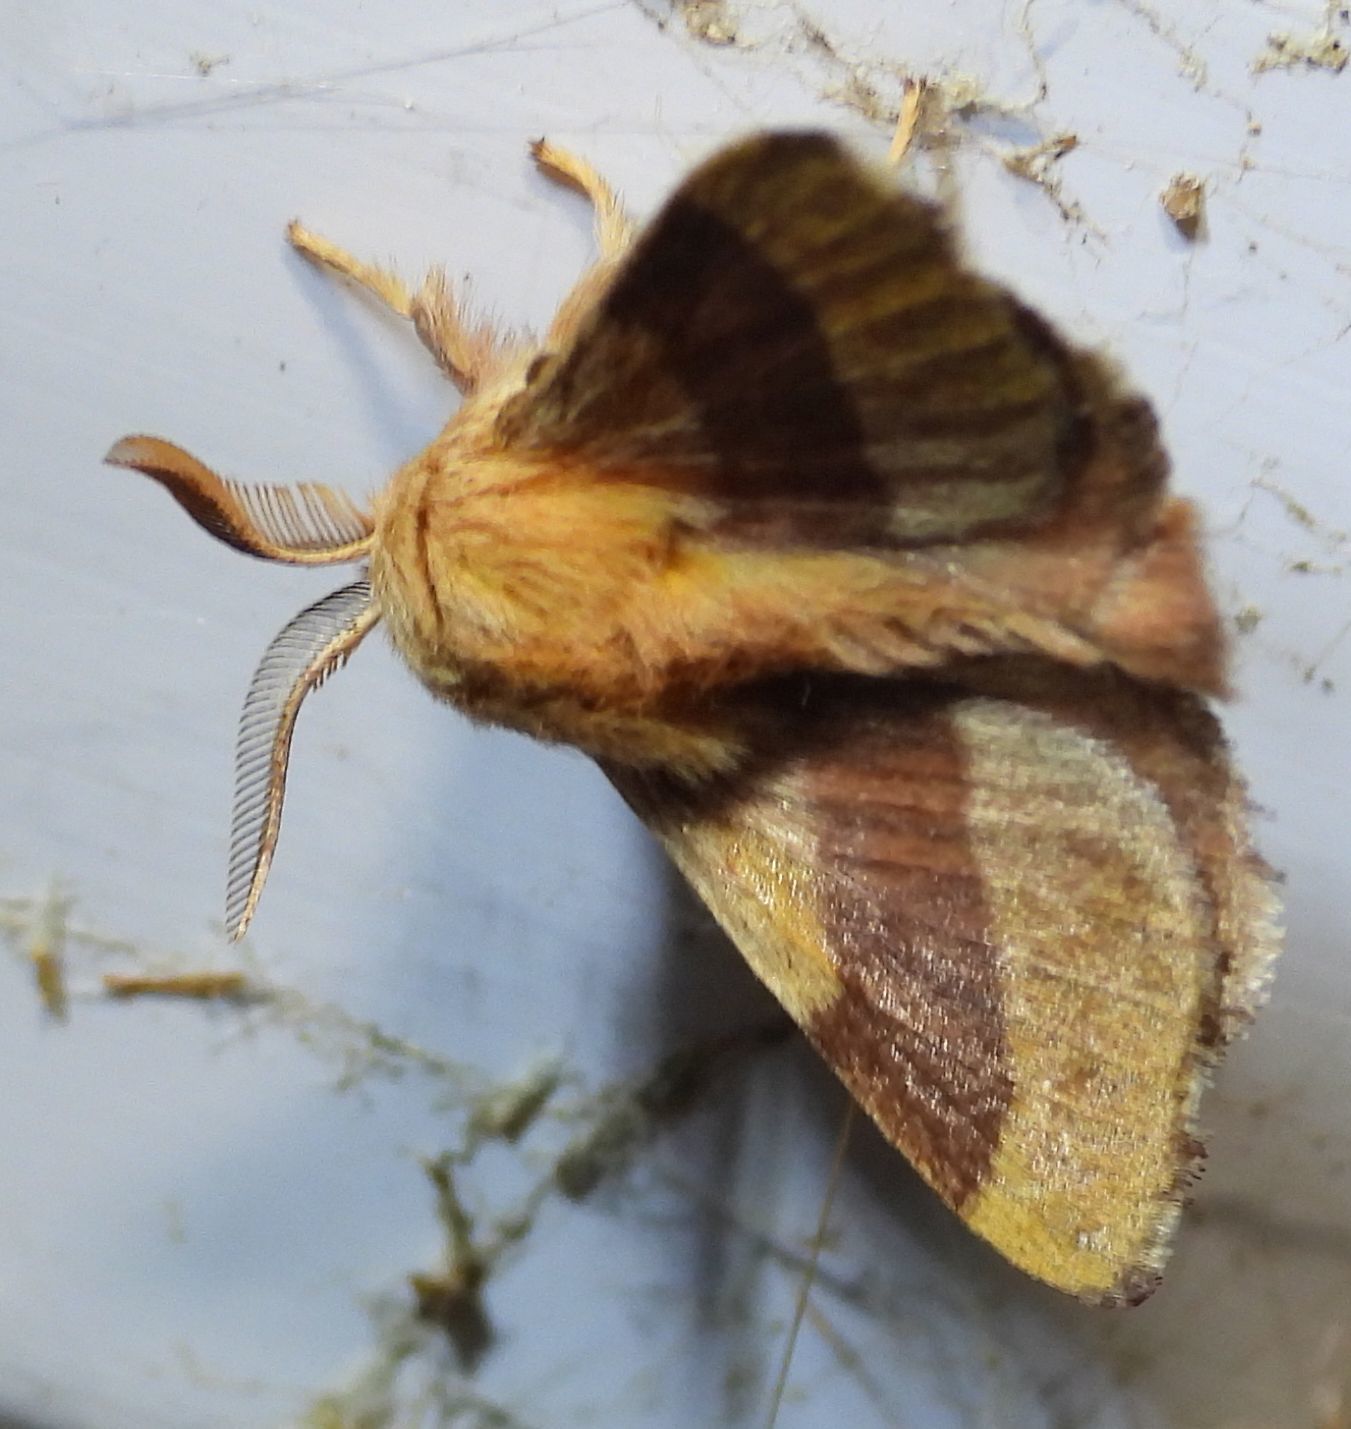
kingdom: Animalia
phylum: Arthropoda
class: Insecta
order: Lepidoptera
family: Lasiocampidae
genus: Malacosoma
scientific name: Malacosoma disstria
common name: Forest tent caterpillar
